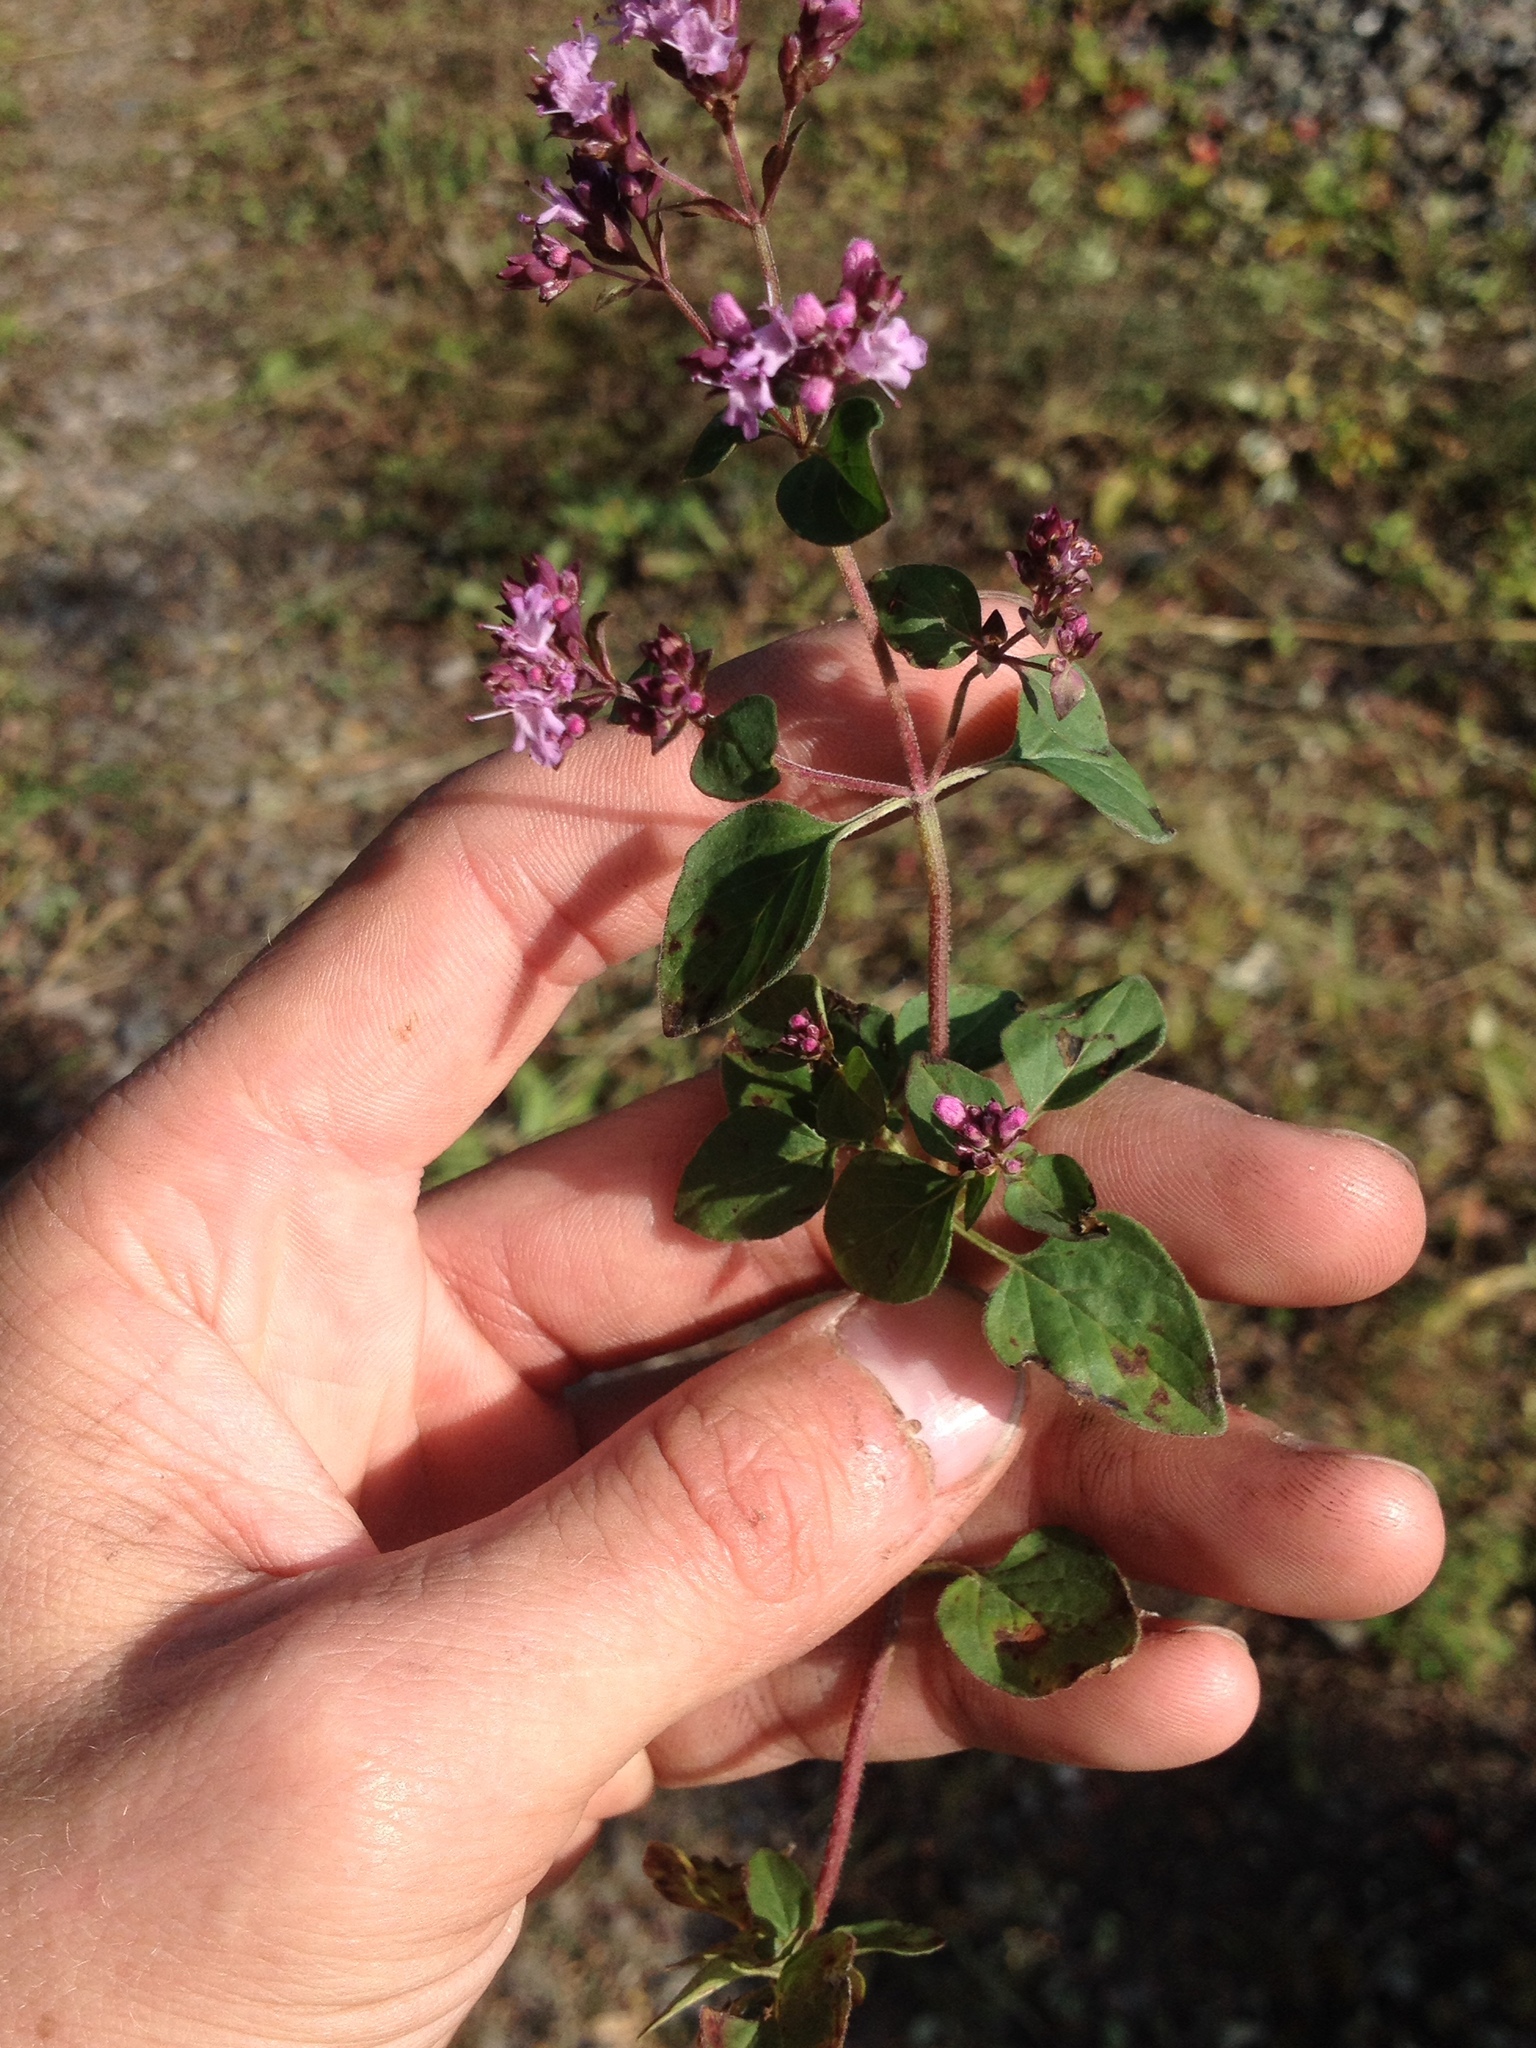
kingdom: Plantae
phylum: Tracheophyta
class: Magnoliopsida
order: Lamiales
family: Lamiaceae
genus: Origanum
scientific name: Origanum vulgare
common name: Wild marjoram
